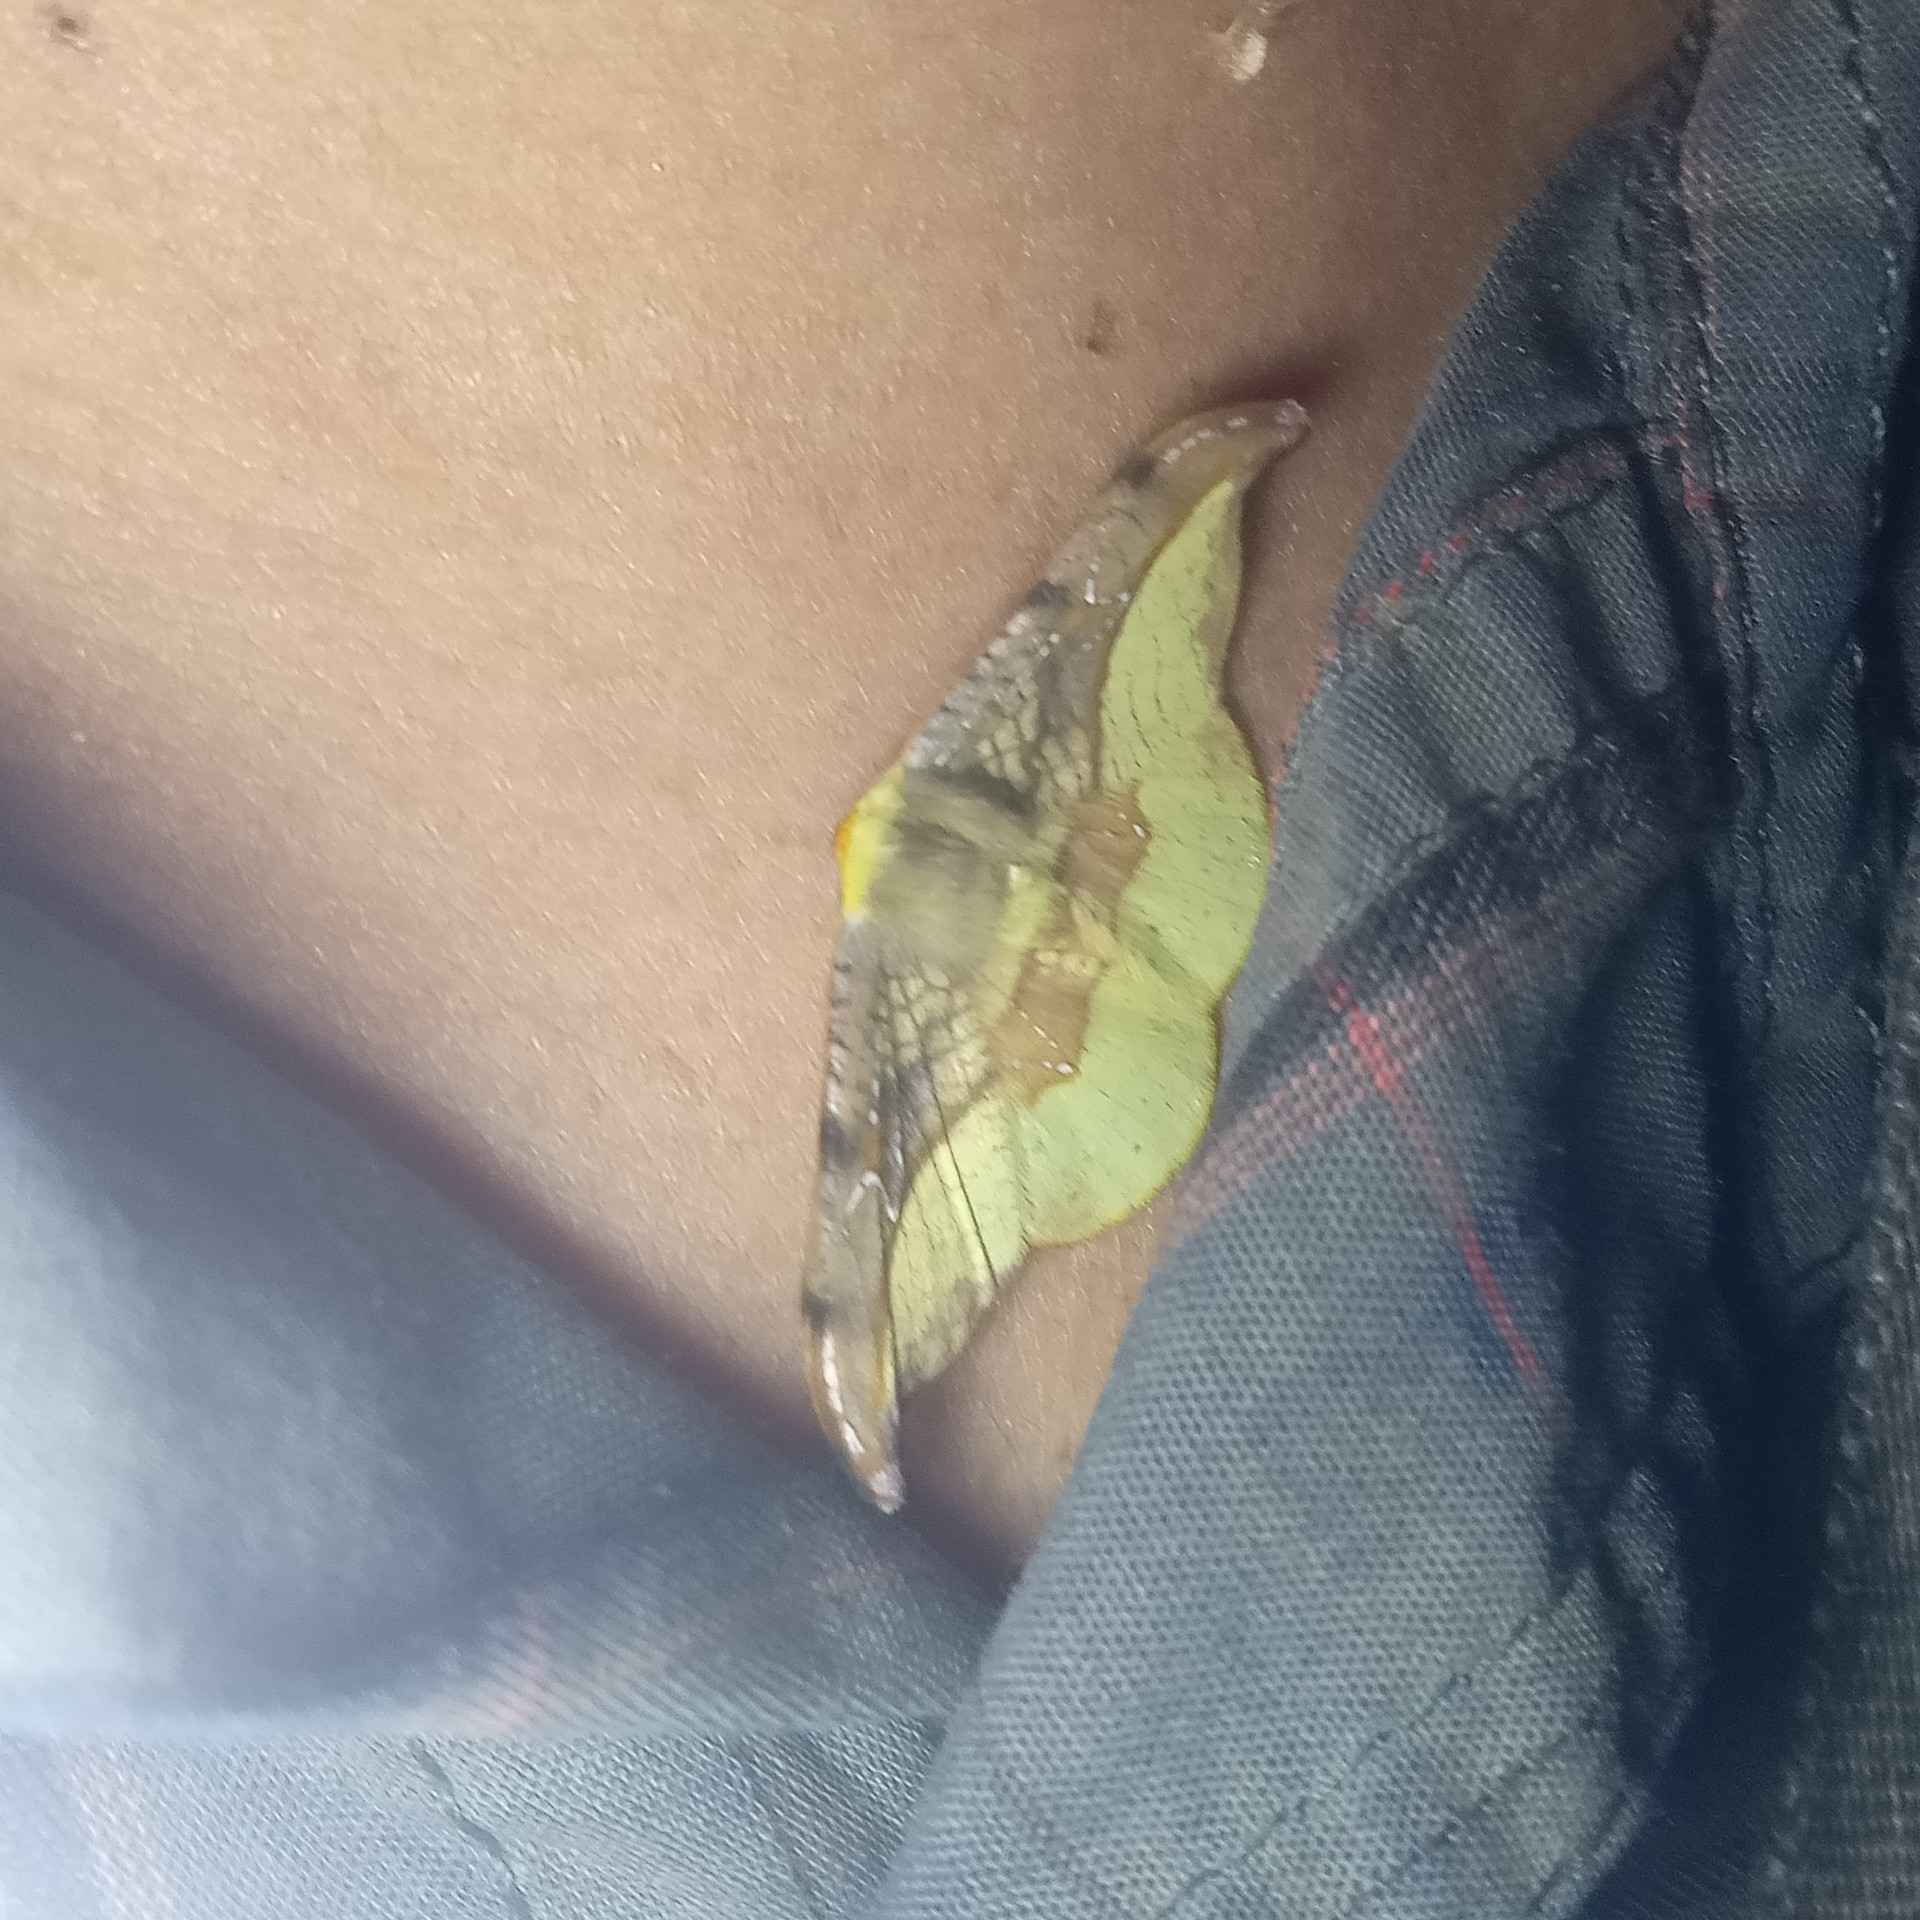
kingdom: Animalia
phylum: Arthropoda
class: Insecta
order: Lepidoptera
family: Drepanidae
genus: Oreta
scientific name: Oreta vatama
